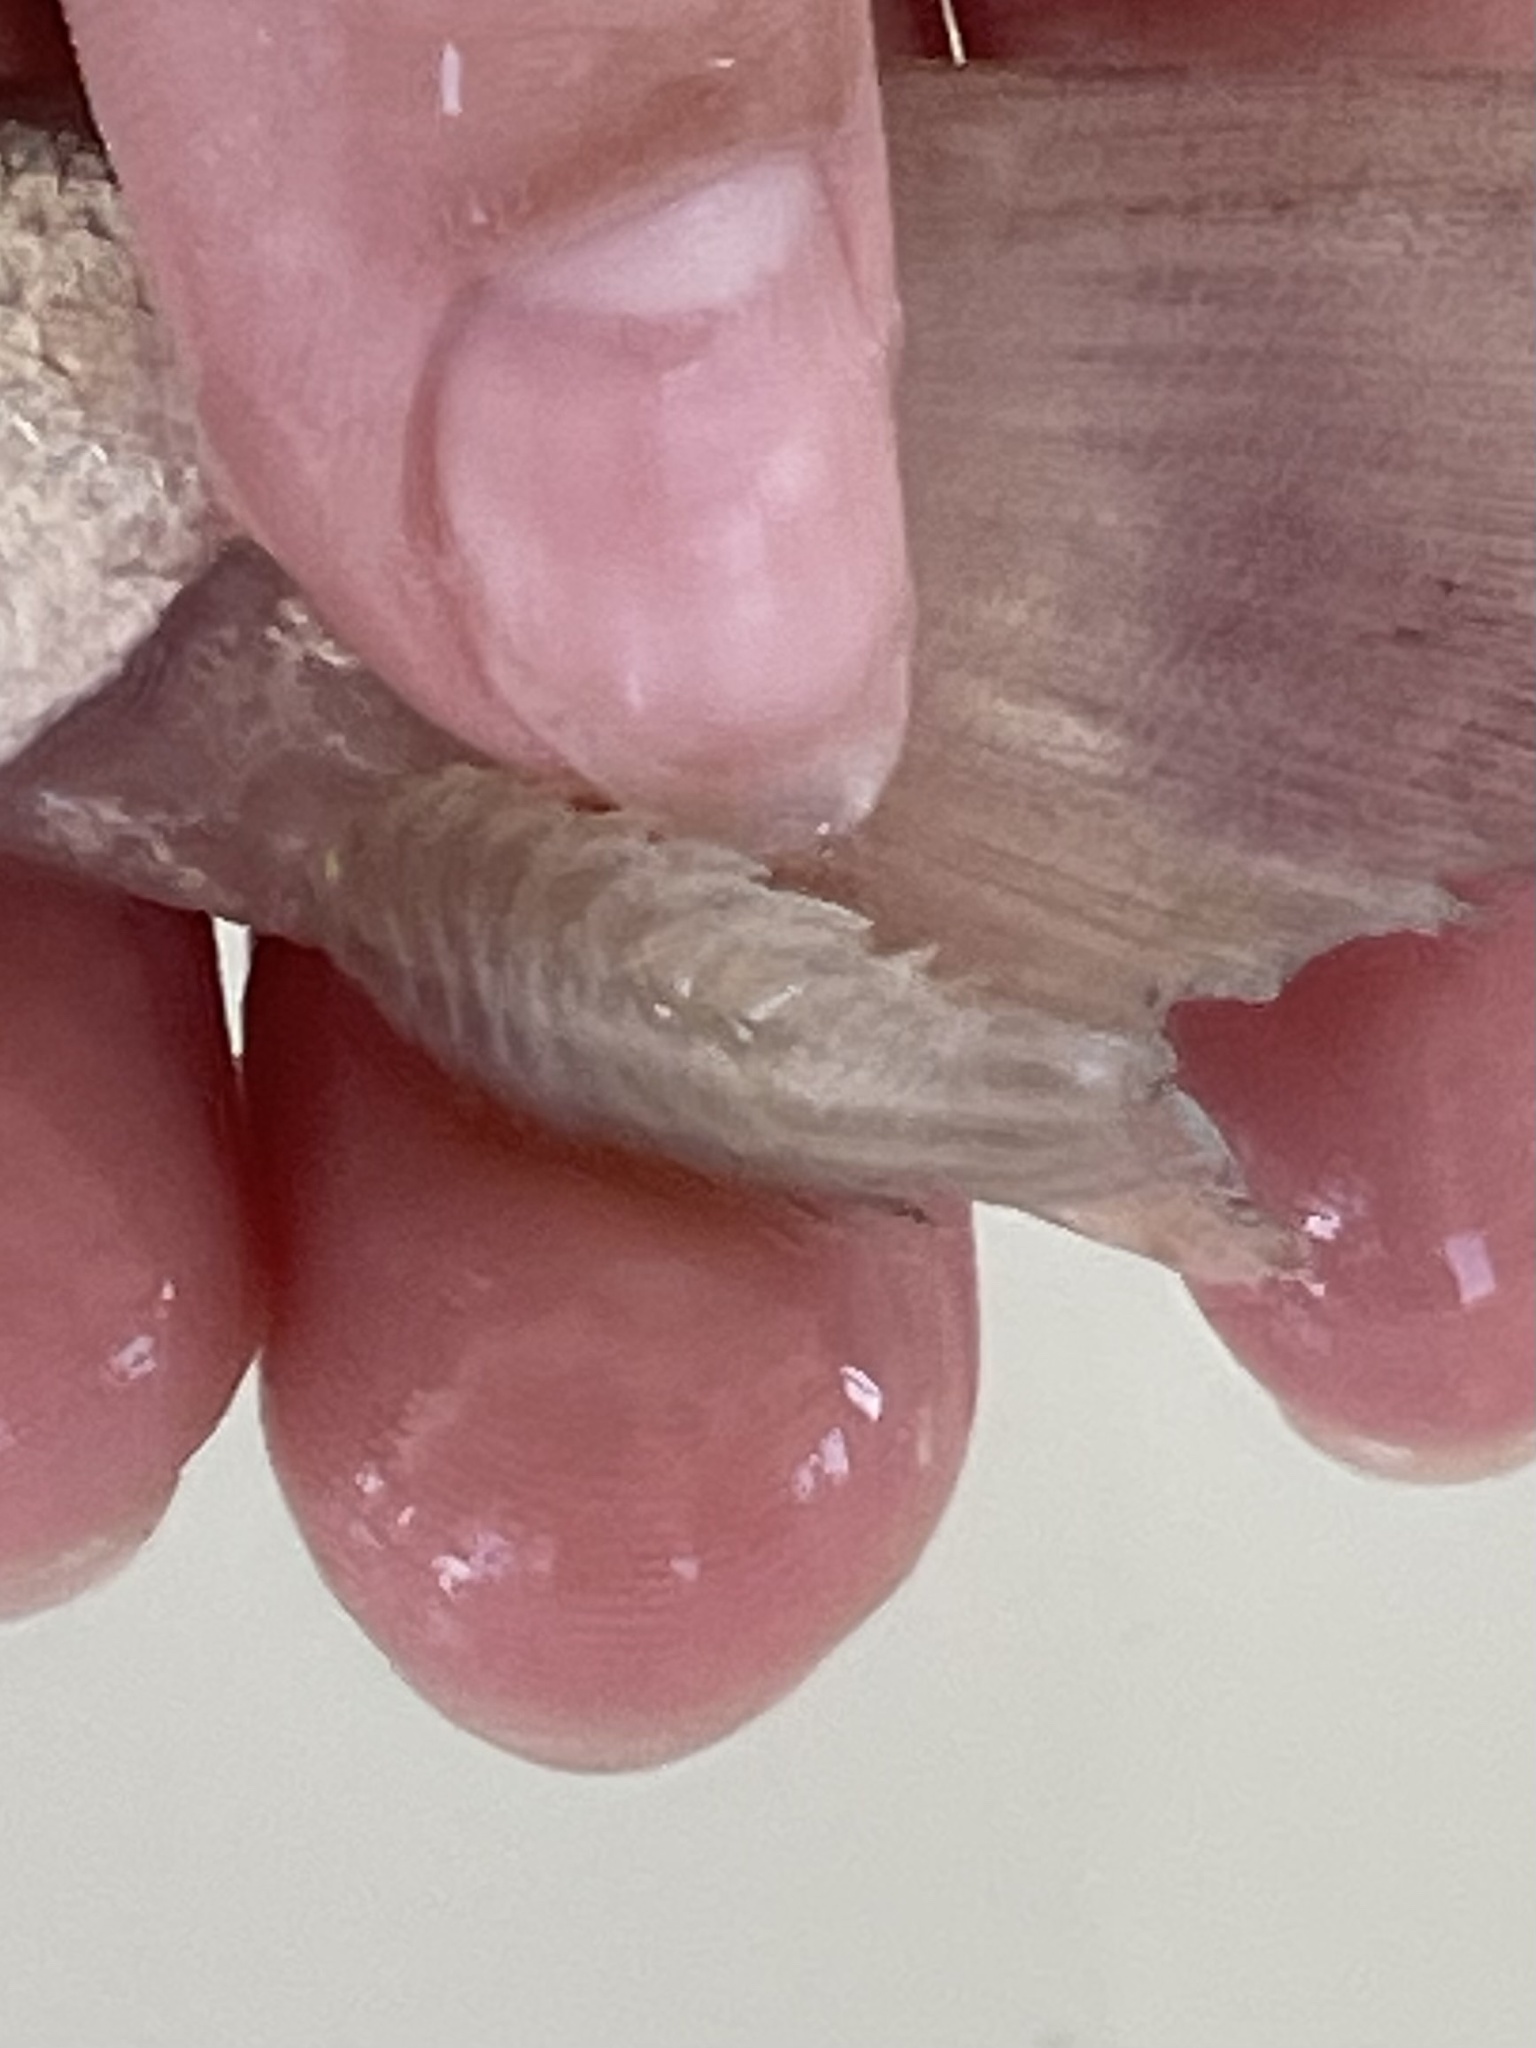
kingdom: Animalia
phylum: Arthropoda
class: Malacostraca
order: Isopoda
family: Cymothoidae
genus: Nerocila
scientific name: Nerocila lanceolata
